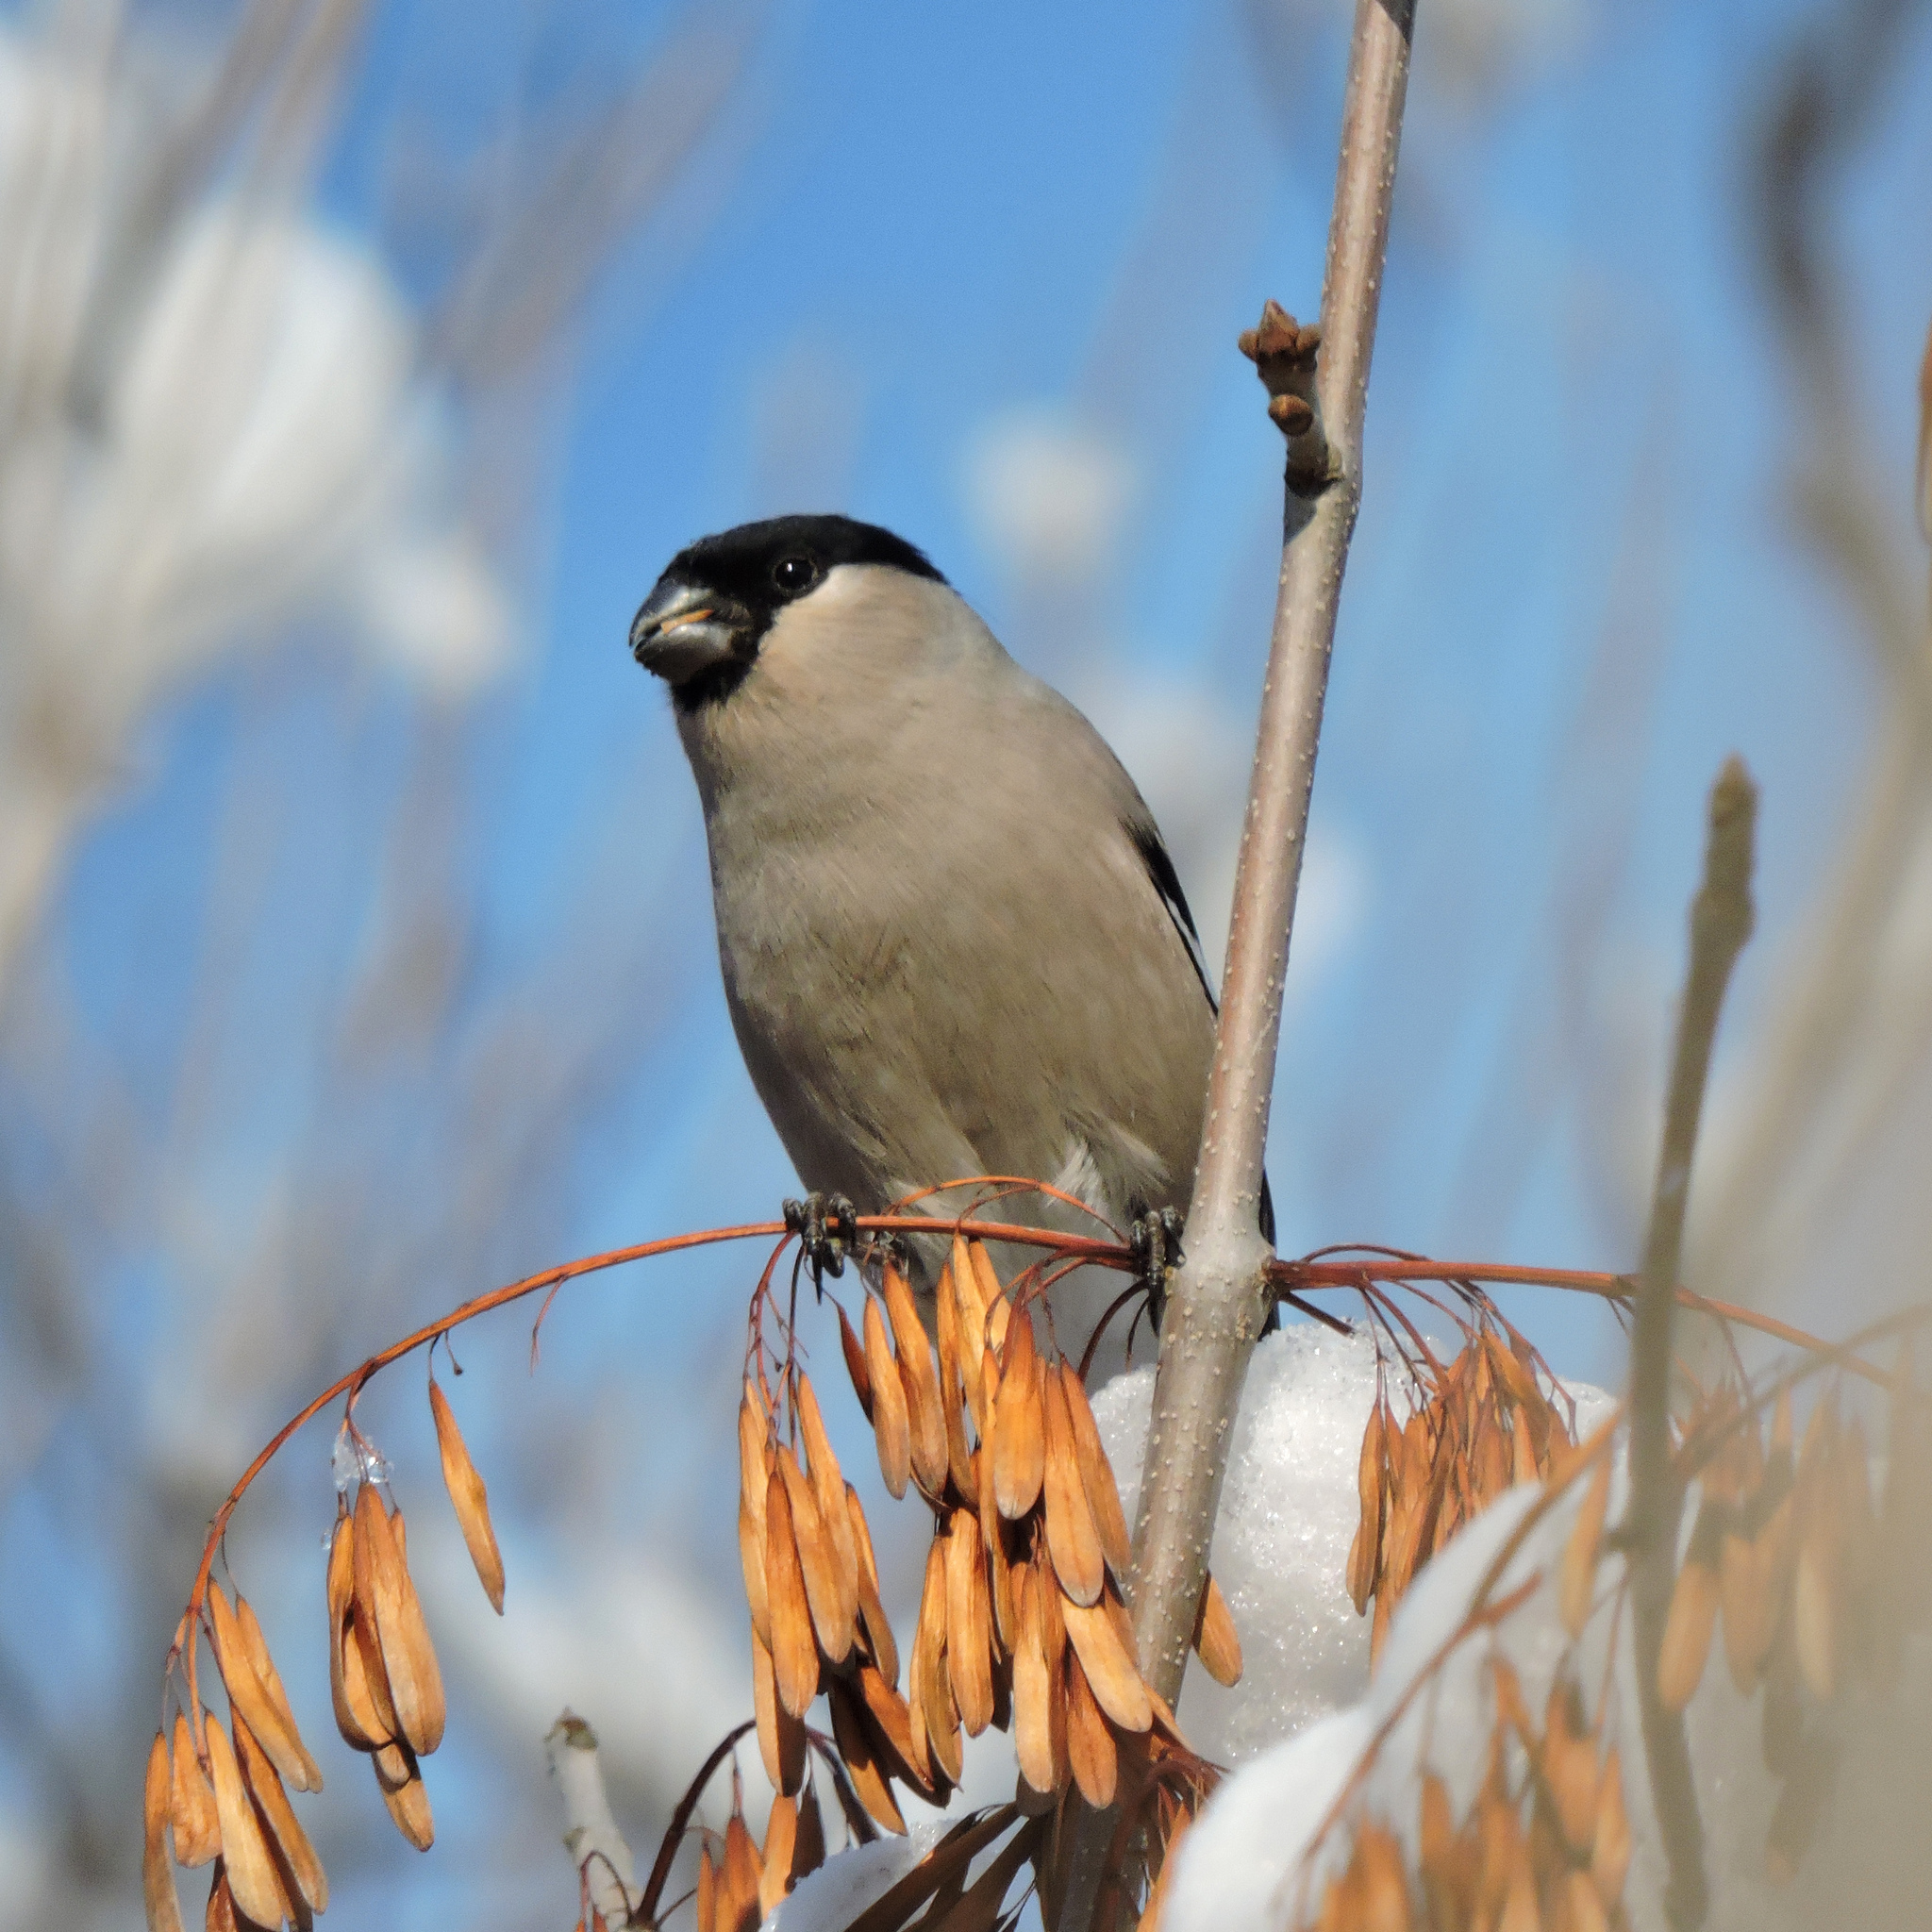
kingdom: Animalia
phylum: Chordata
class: Aves
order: Passeriformes
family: Fringillidae
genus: Pyrrhula
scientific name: Pyrrhula pyrrhula
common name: Eurasian bullfinch
